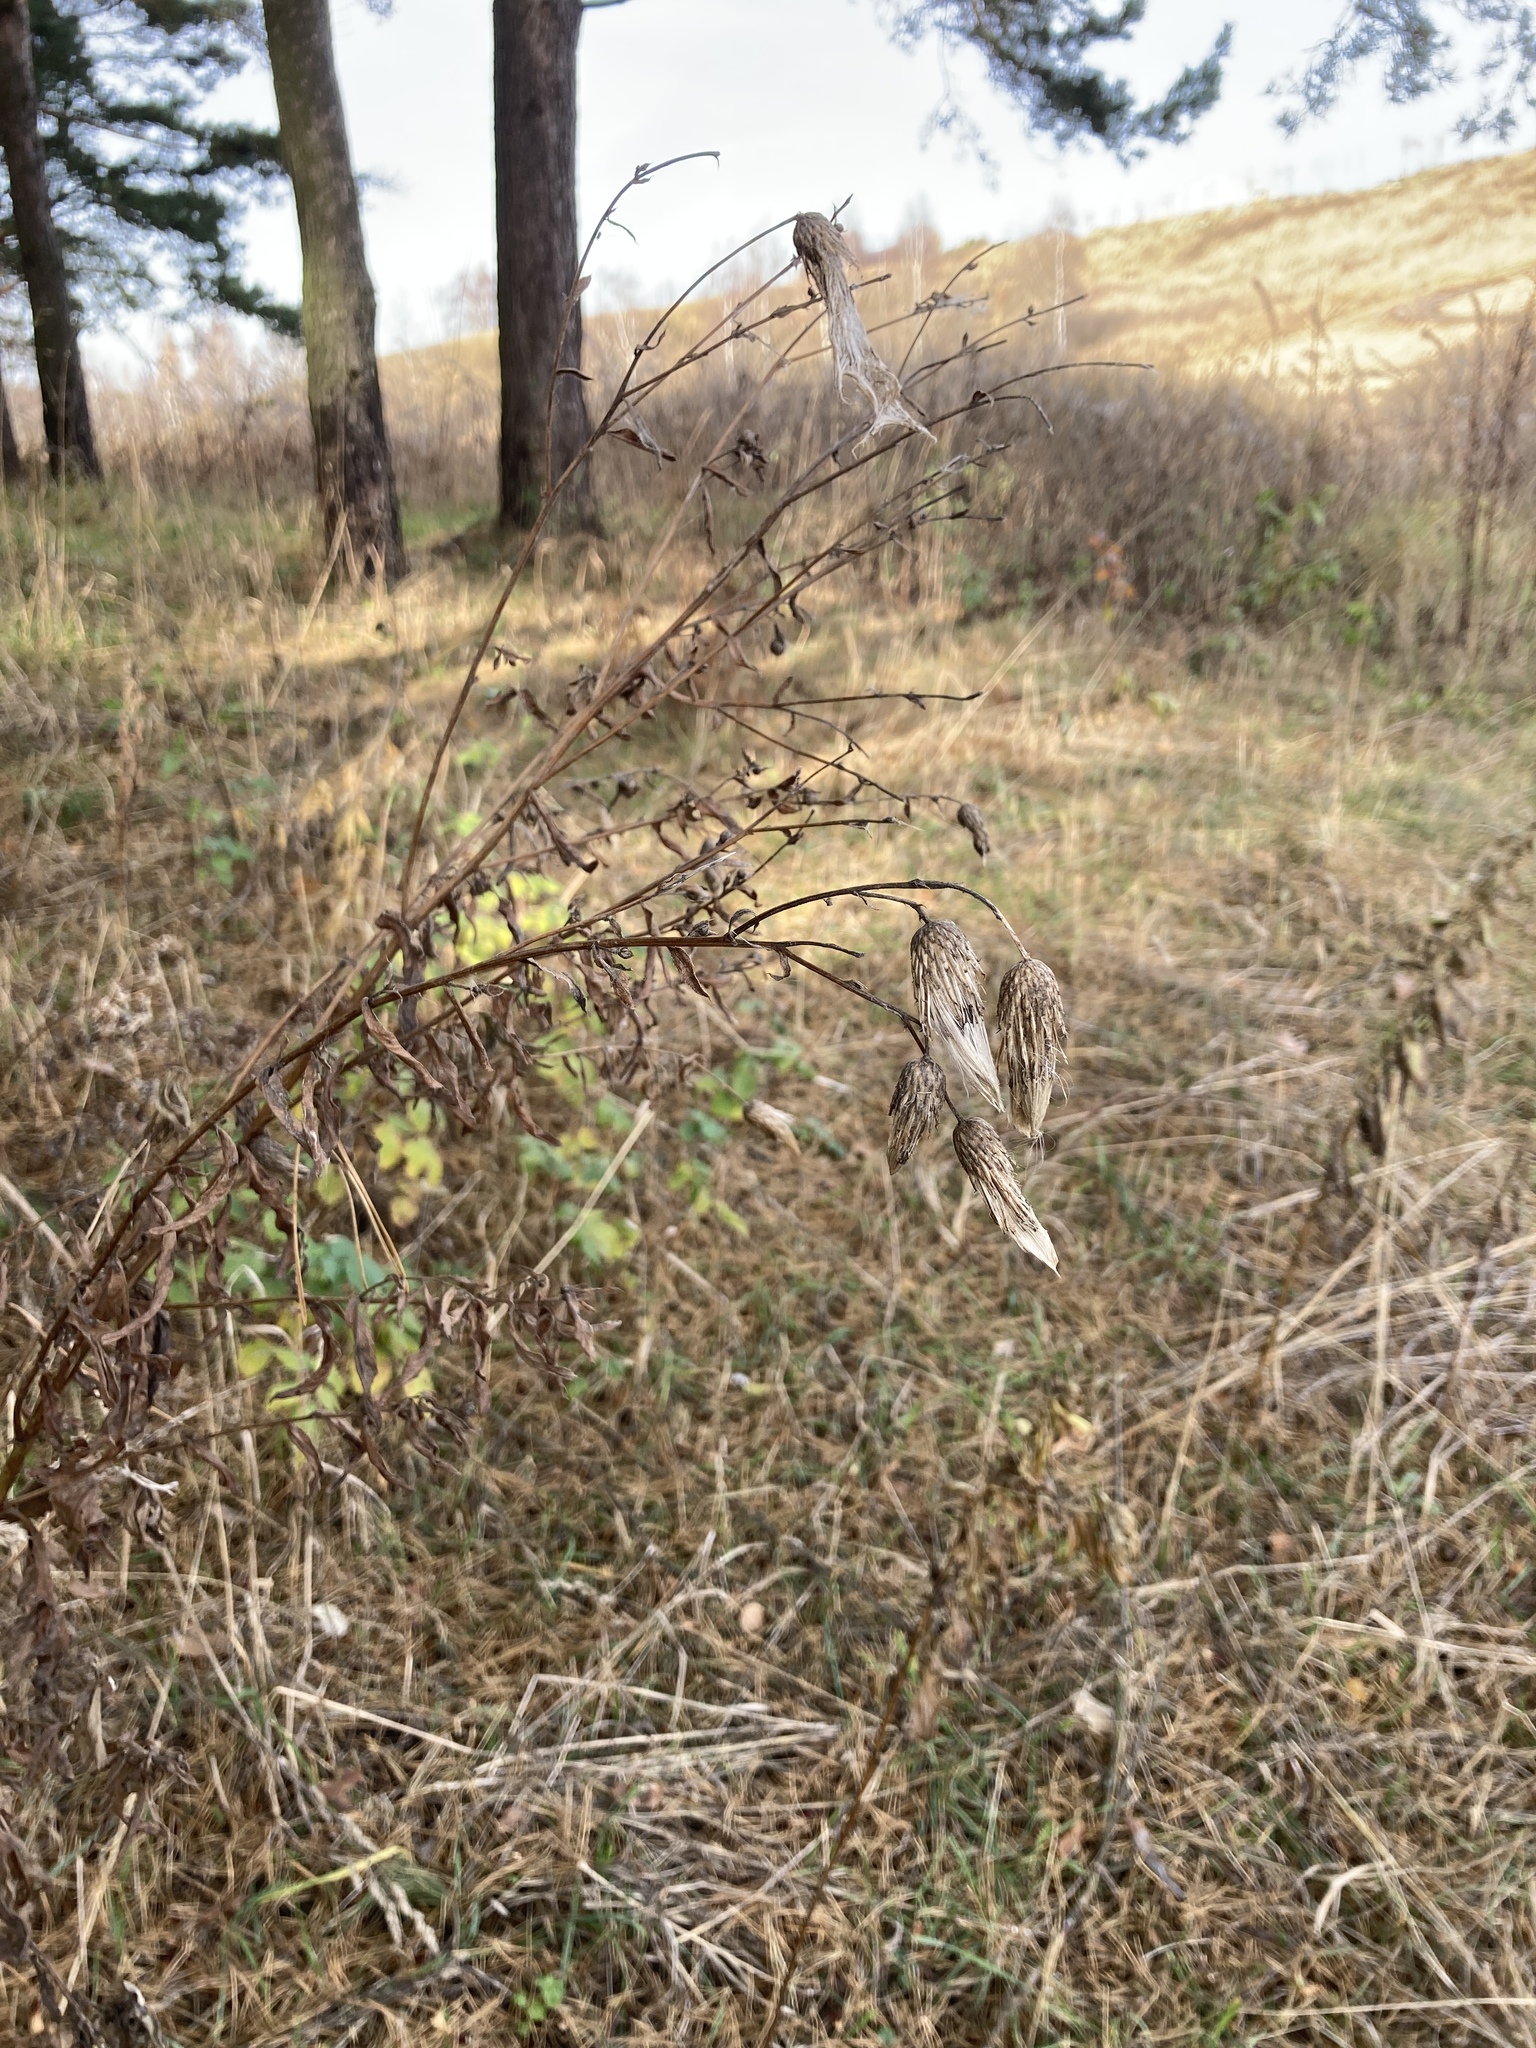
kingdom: Plantae
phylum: Tracheophyta
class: Magnoliopsida
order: Asterales
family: Asteraceae
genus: Cirsium
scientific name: Cirsium arvense
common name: Creeping thistle
